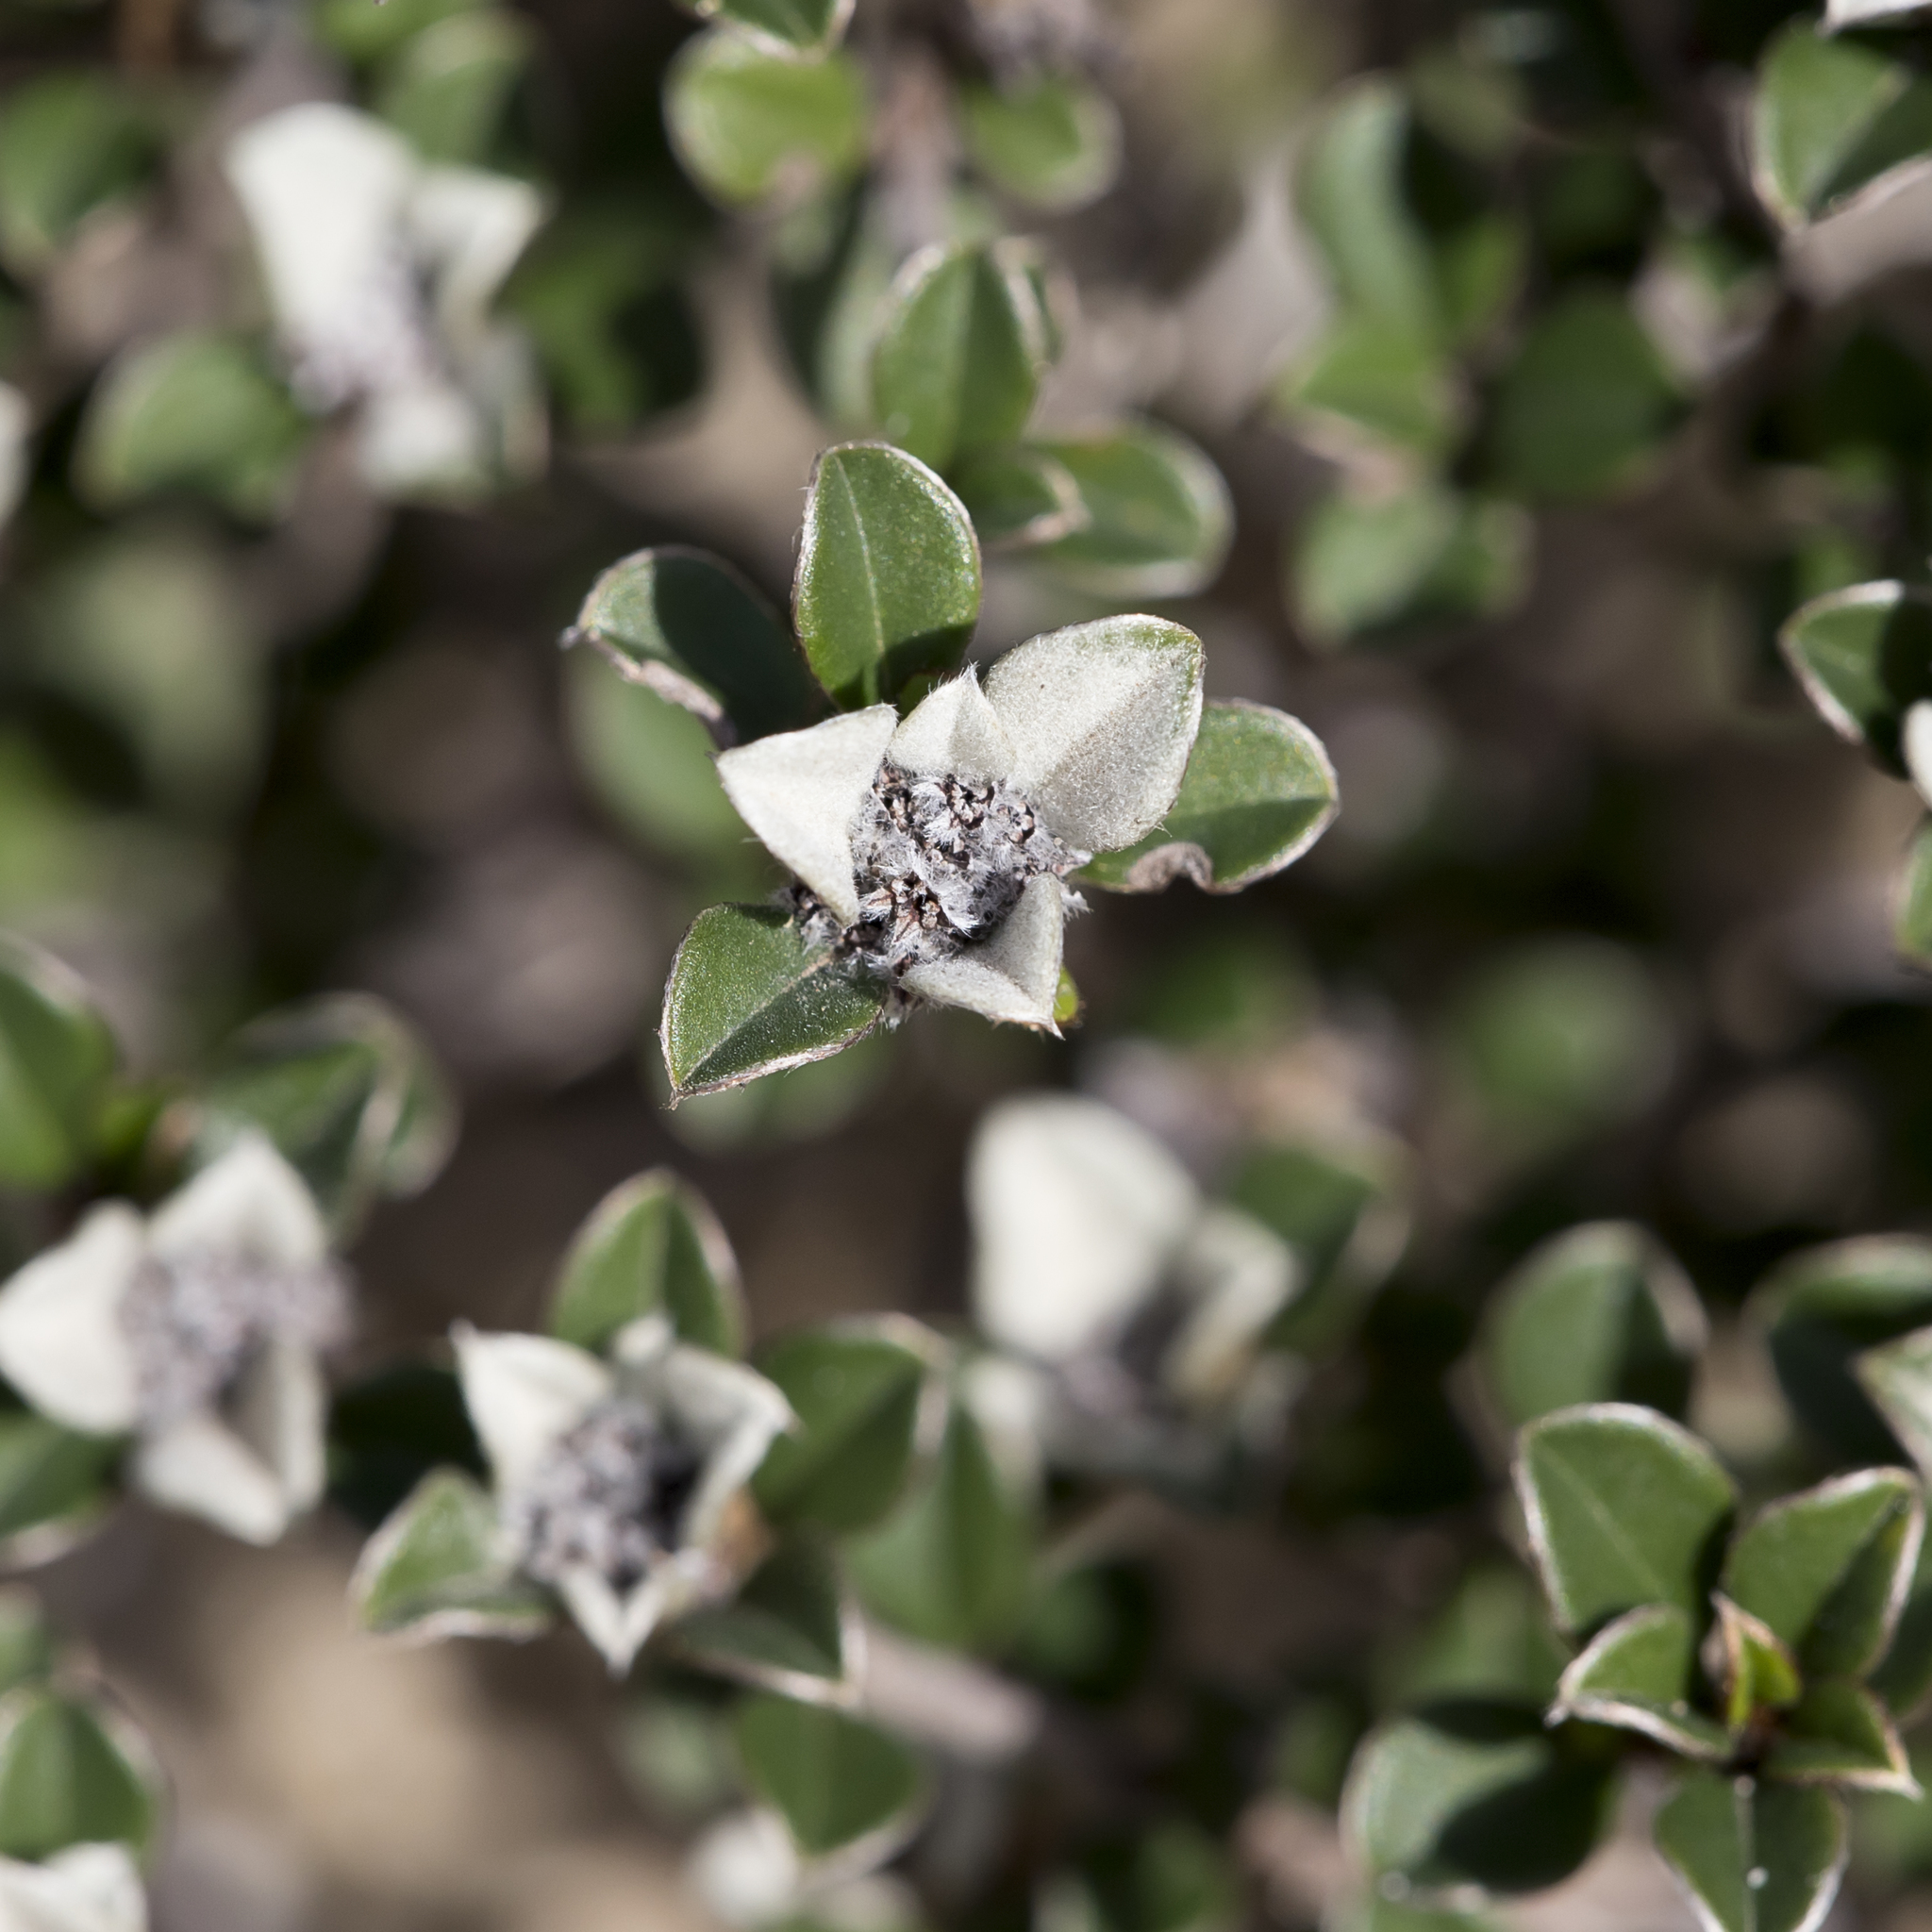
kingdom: Plantae
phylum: Tracheophyta
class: Magnoliopsida
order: Rosales
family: Rhamnaceae
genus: Cryptandra
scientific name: Cryptandra leucophracta
